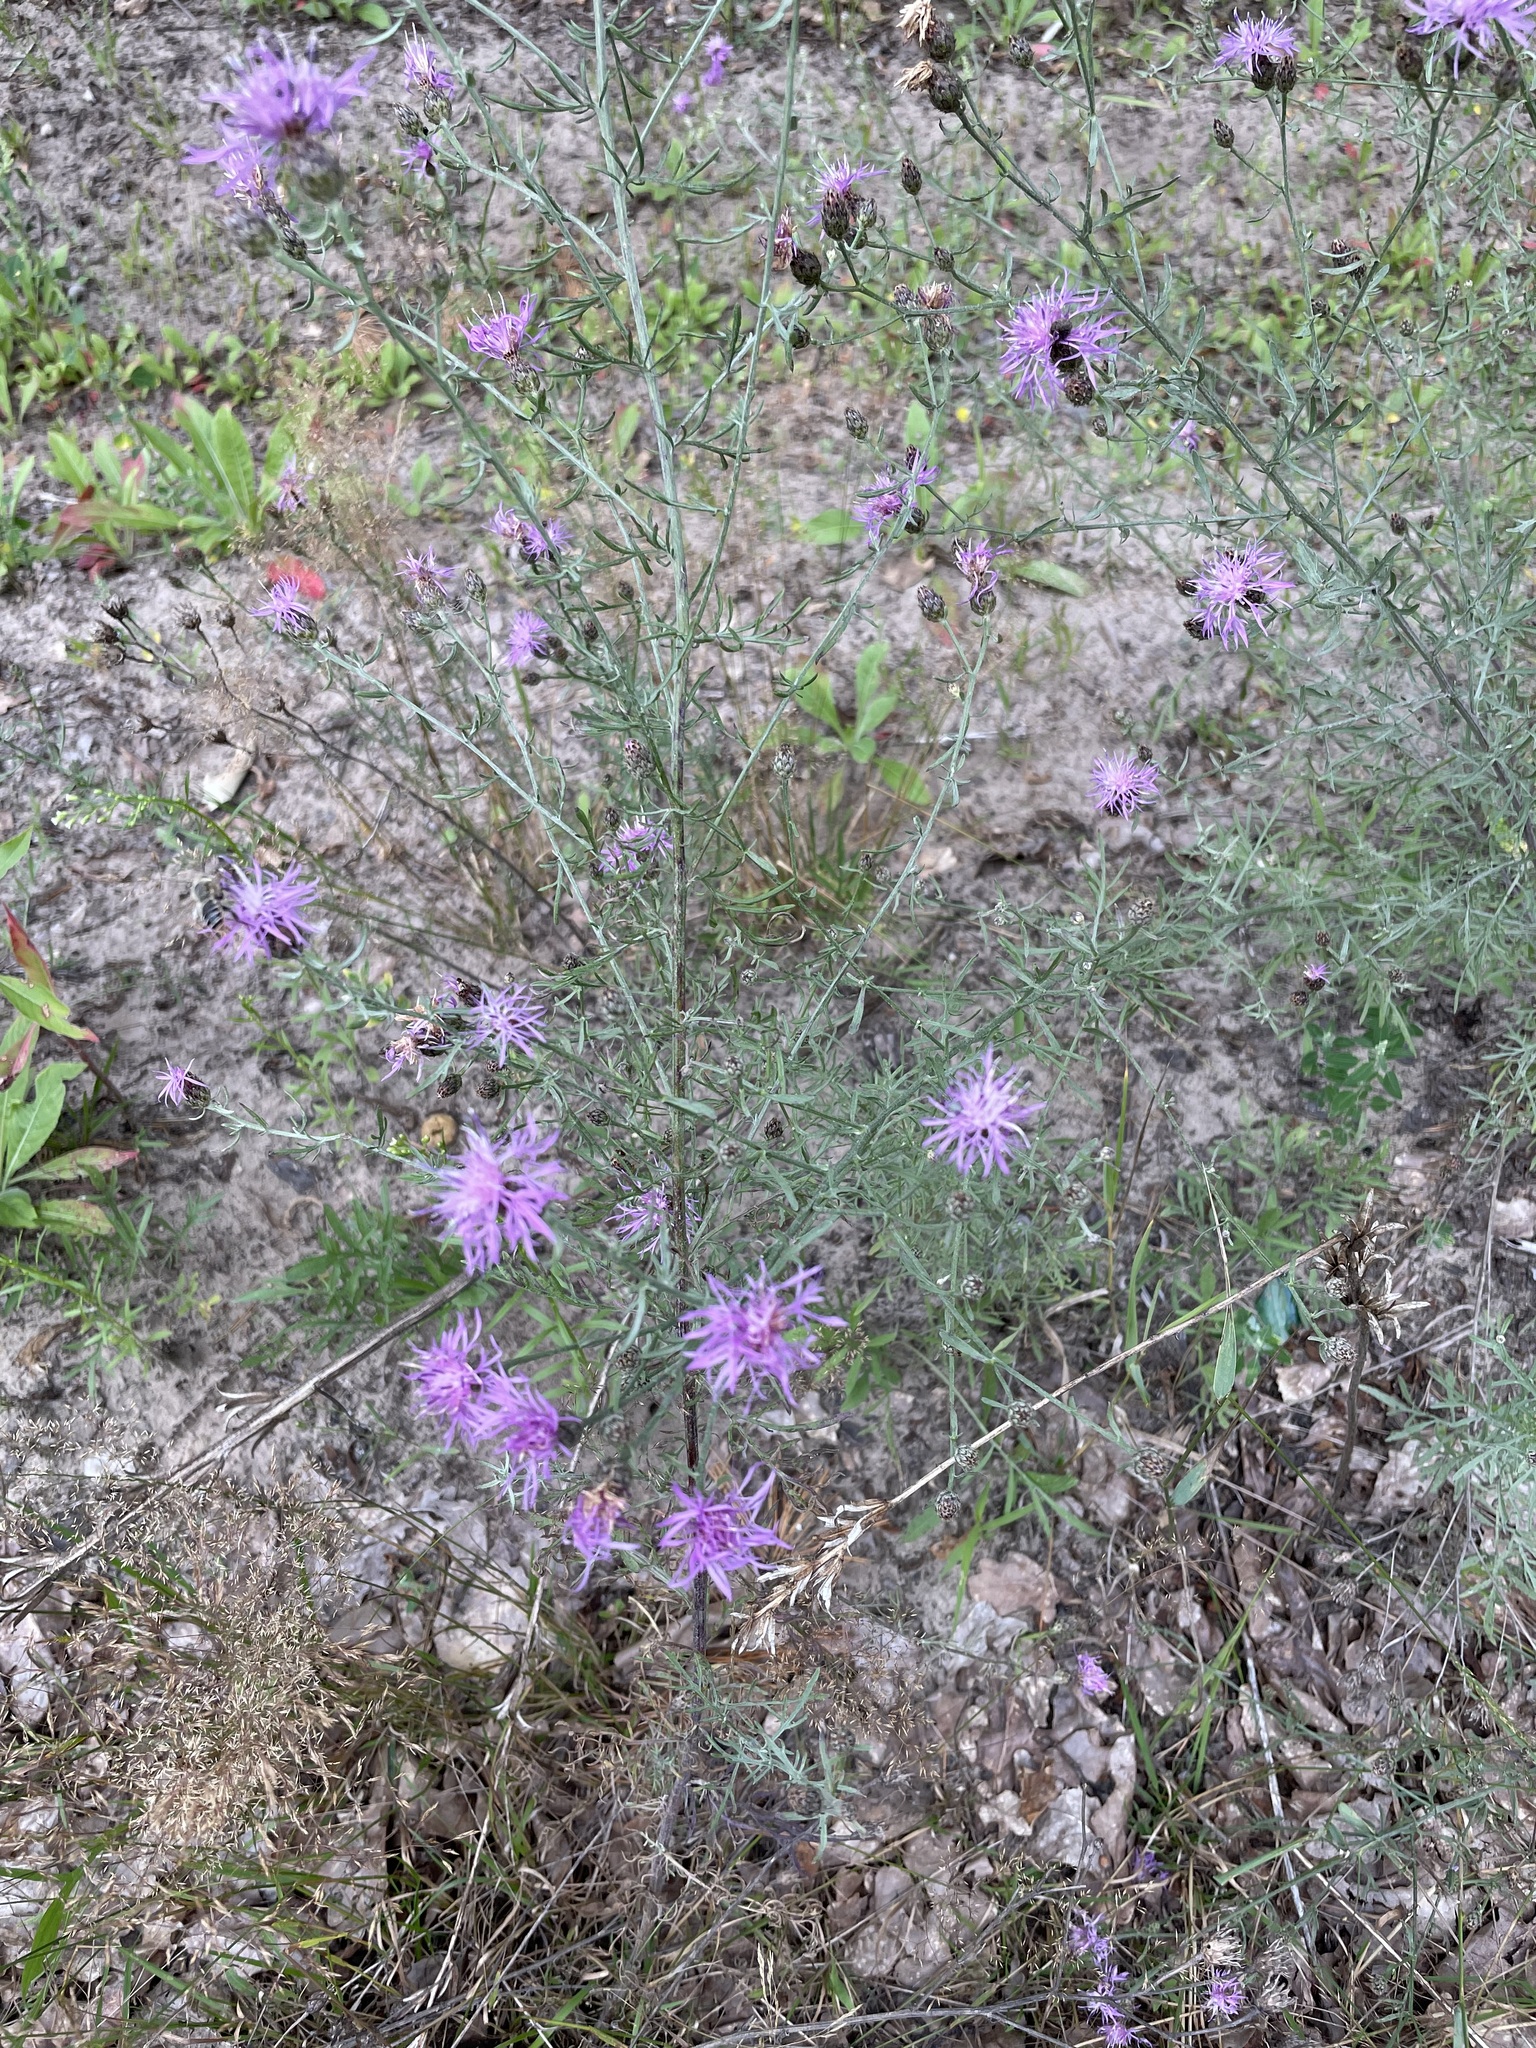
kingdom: Plantae
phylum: Tracheophyta
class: Magnoliopsida
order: Asterales
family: Asteraceae
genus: Centaurea
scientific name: Centaurea stoebe
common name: Spotted knapweed
